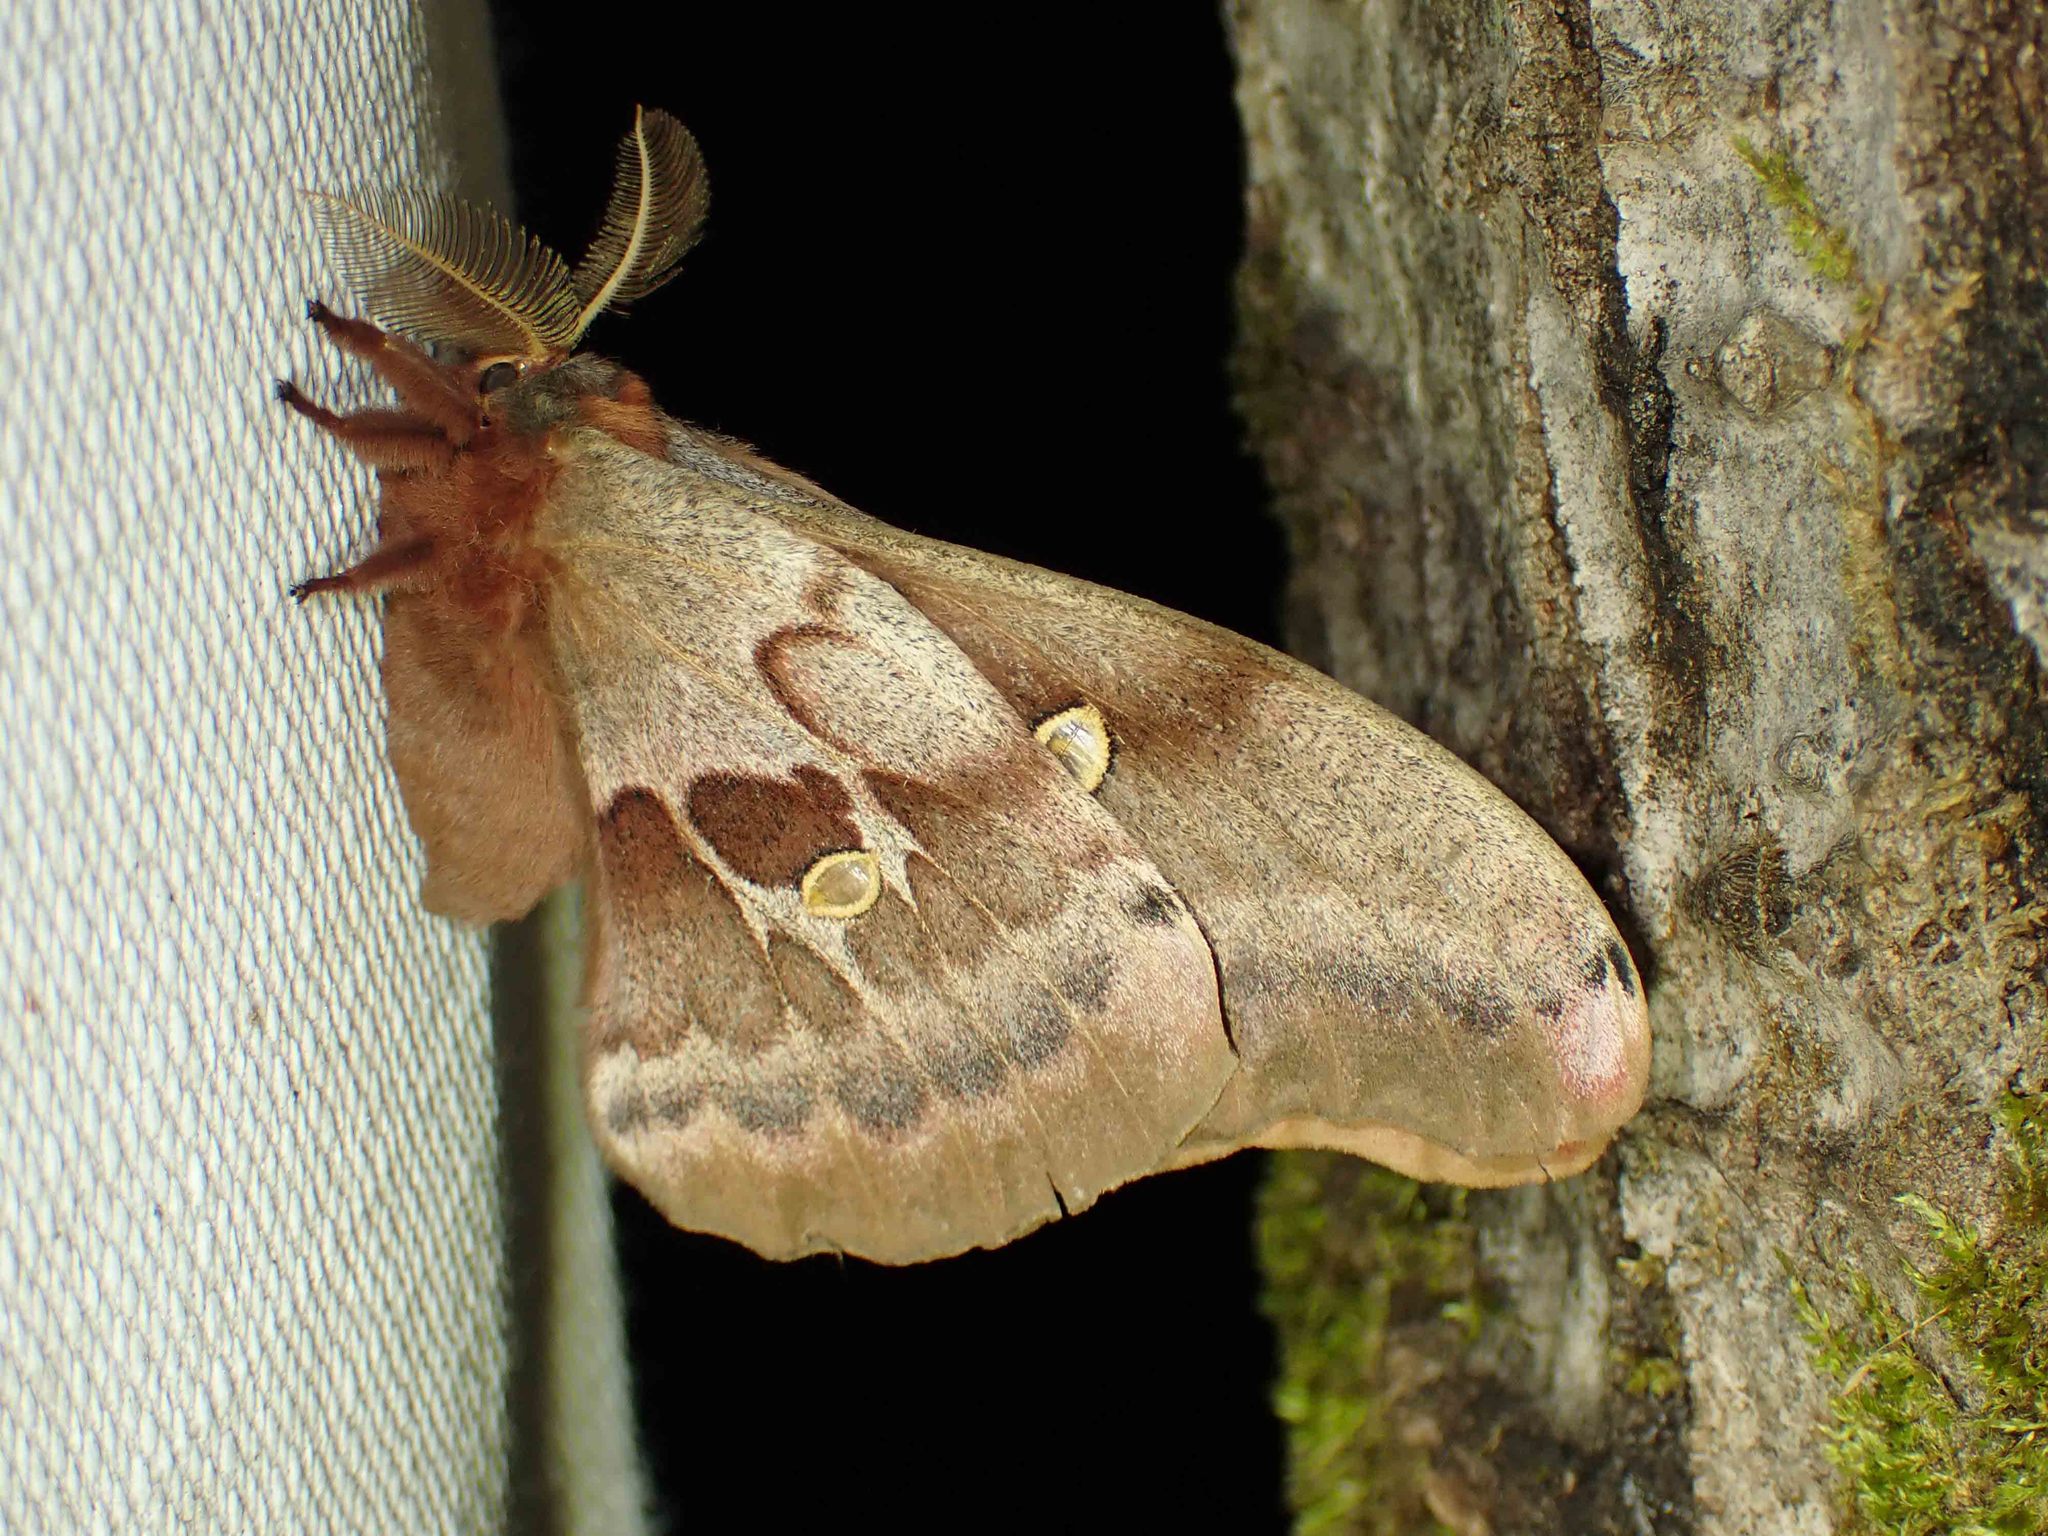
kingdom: Animalia
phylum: Arthropoda
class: Insecta
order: Lepidoptera
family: Saturniidae
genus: Antheraea
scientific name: Antheraea polyphemus
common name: Polyphemus moth
